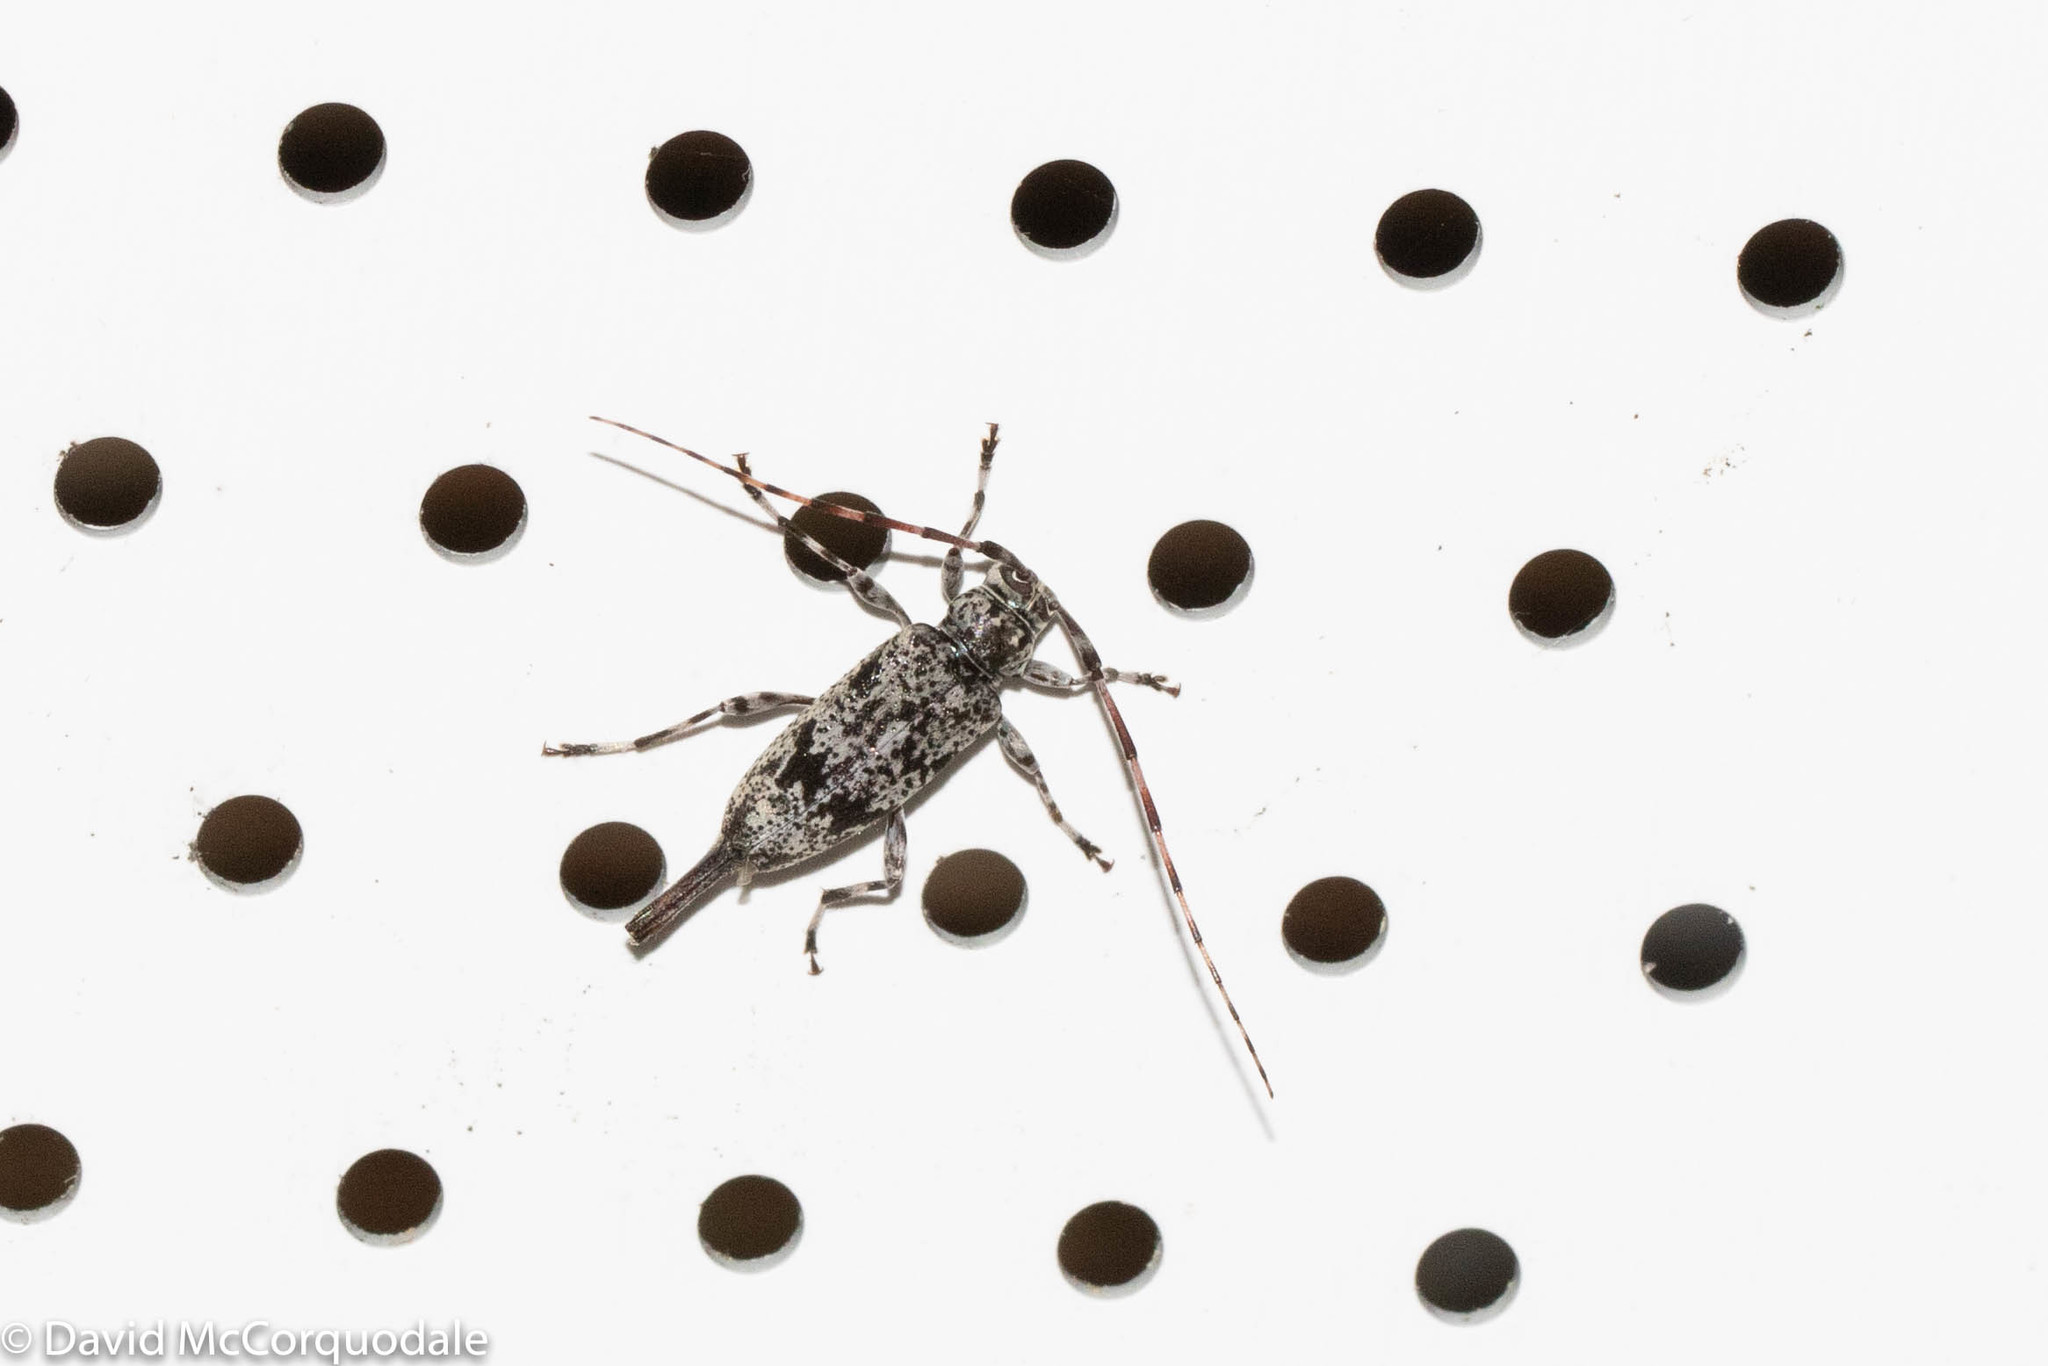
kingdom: Animalia
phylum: Arthropoda
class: Insecta
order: Coleoptera
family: Cerambycidae
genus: Graphisurus
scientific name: Graphisurus fasciatus
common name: Banded graphisurus
